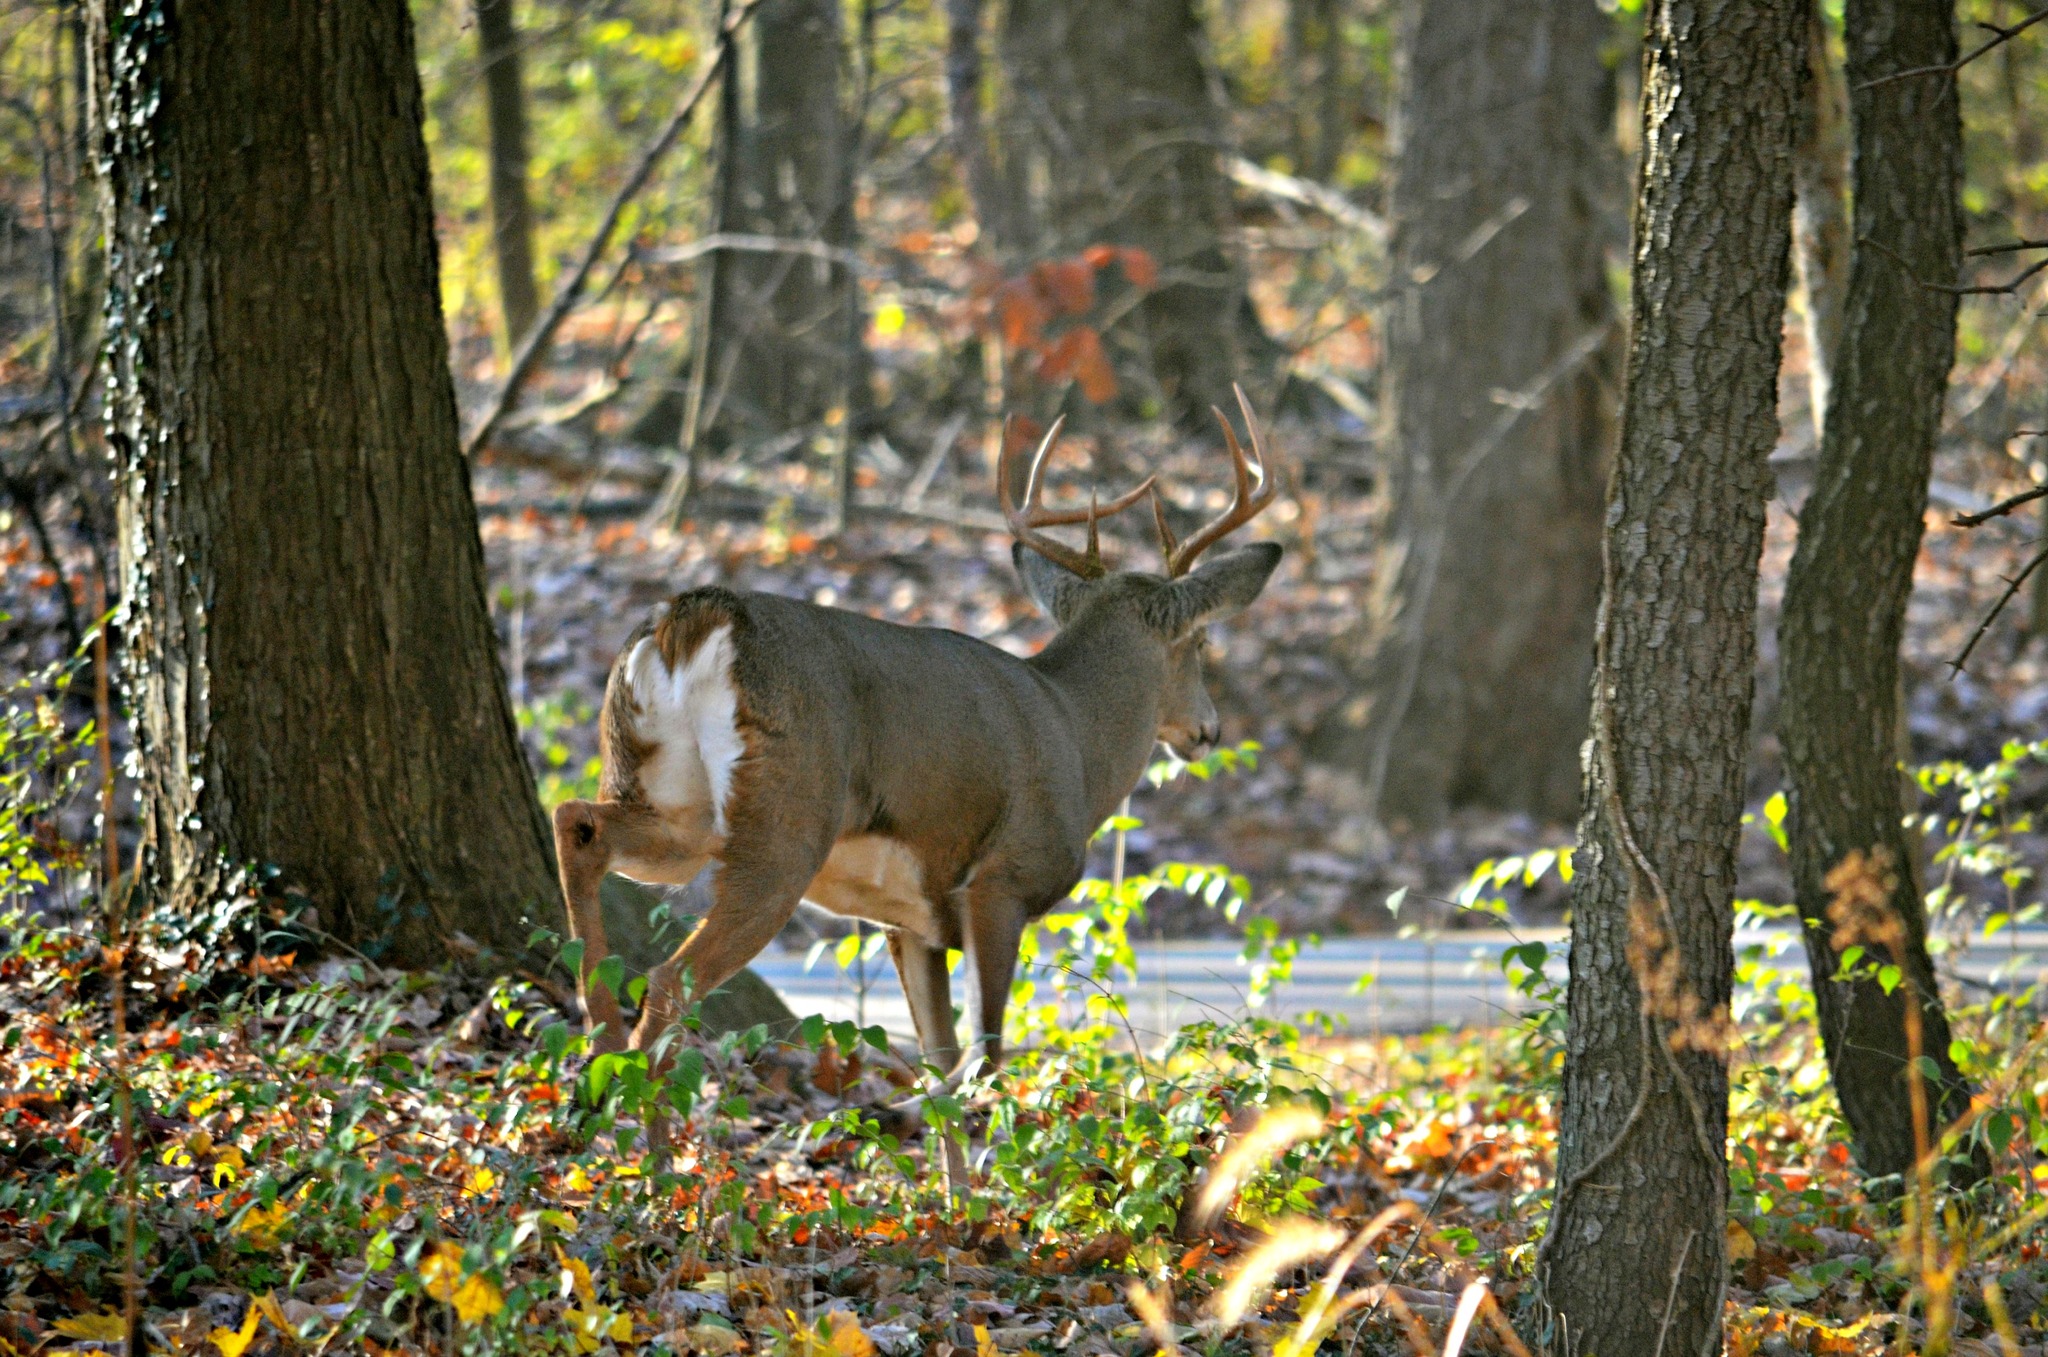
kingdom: Animalia
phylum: Chordata
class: Mammalia
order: Artiodactyla
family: Cervidae
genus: Odocoileus
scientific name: Odocoileus virginianus
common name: White-tailed deer
